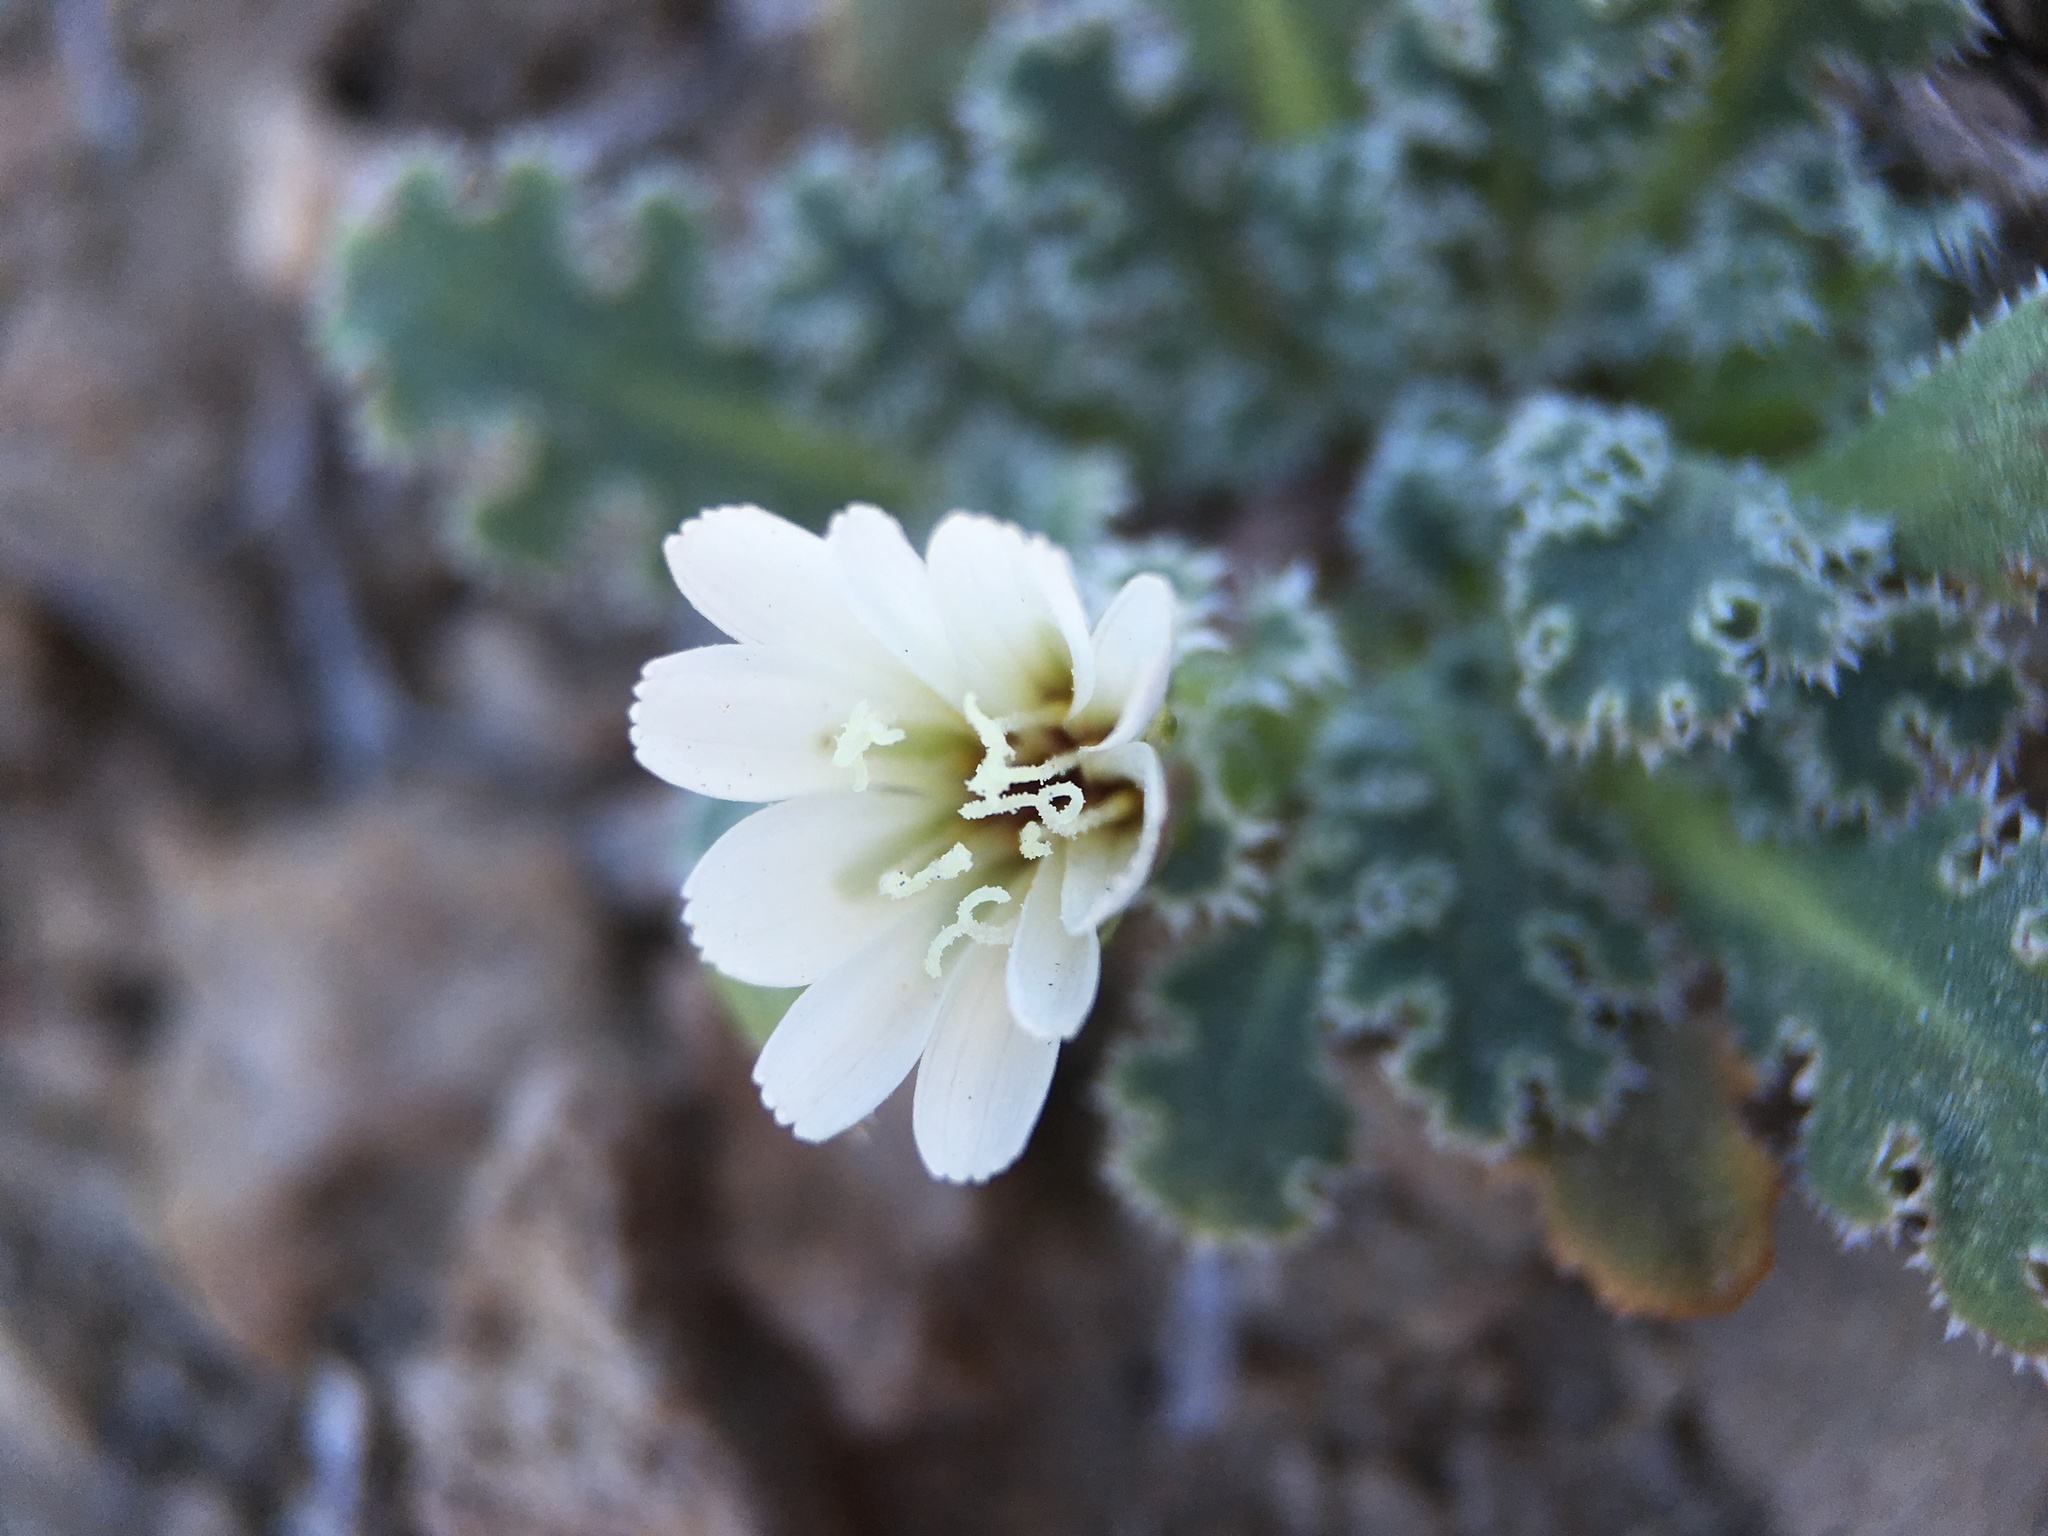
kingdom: Plantae
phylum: Tracheophyta
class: Magnoliopsida
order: Asterales
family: Asteraceae
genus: Glyptopleura
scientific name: Glyptopleura marginata
